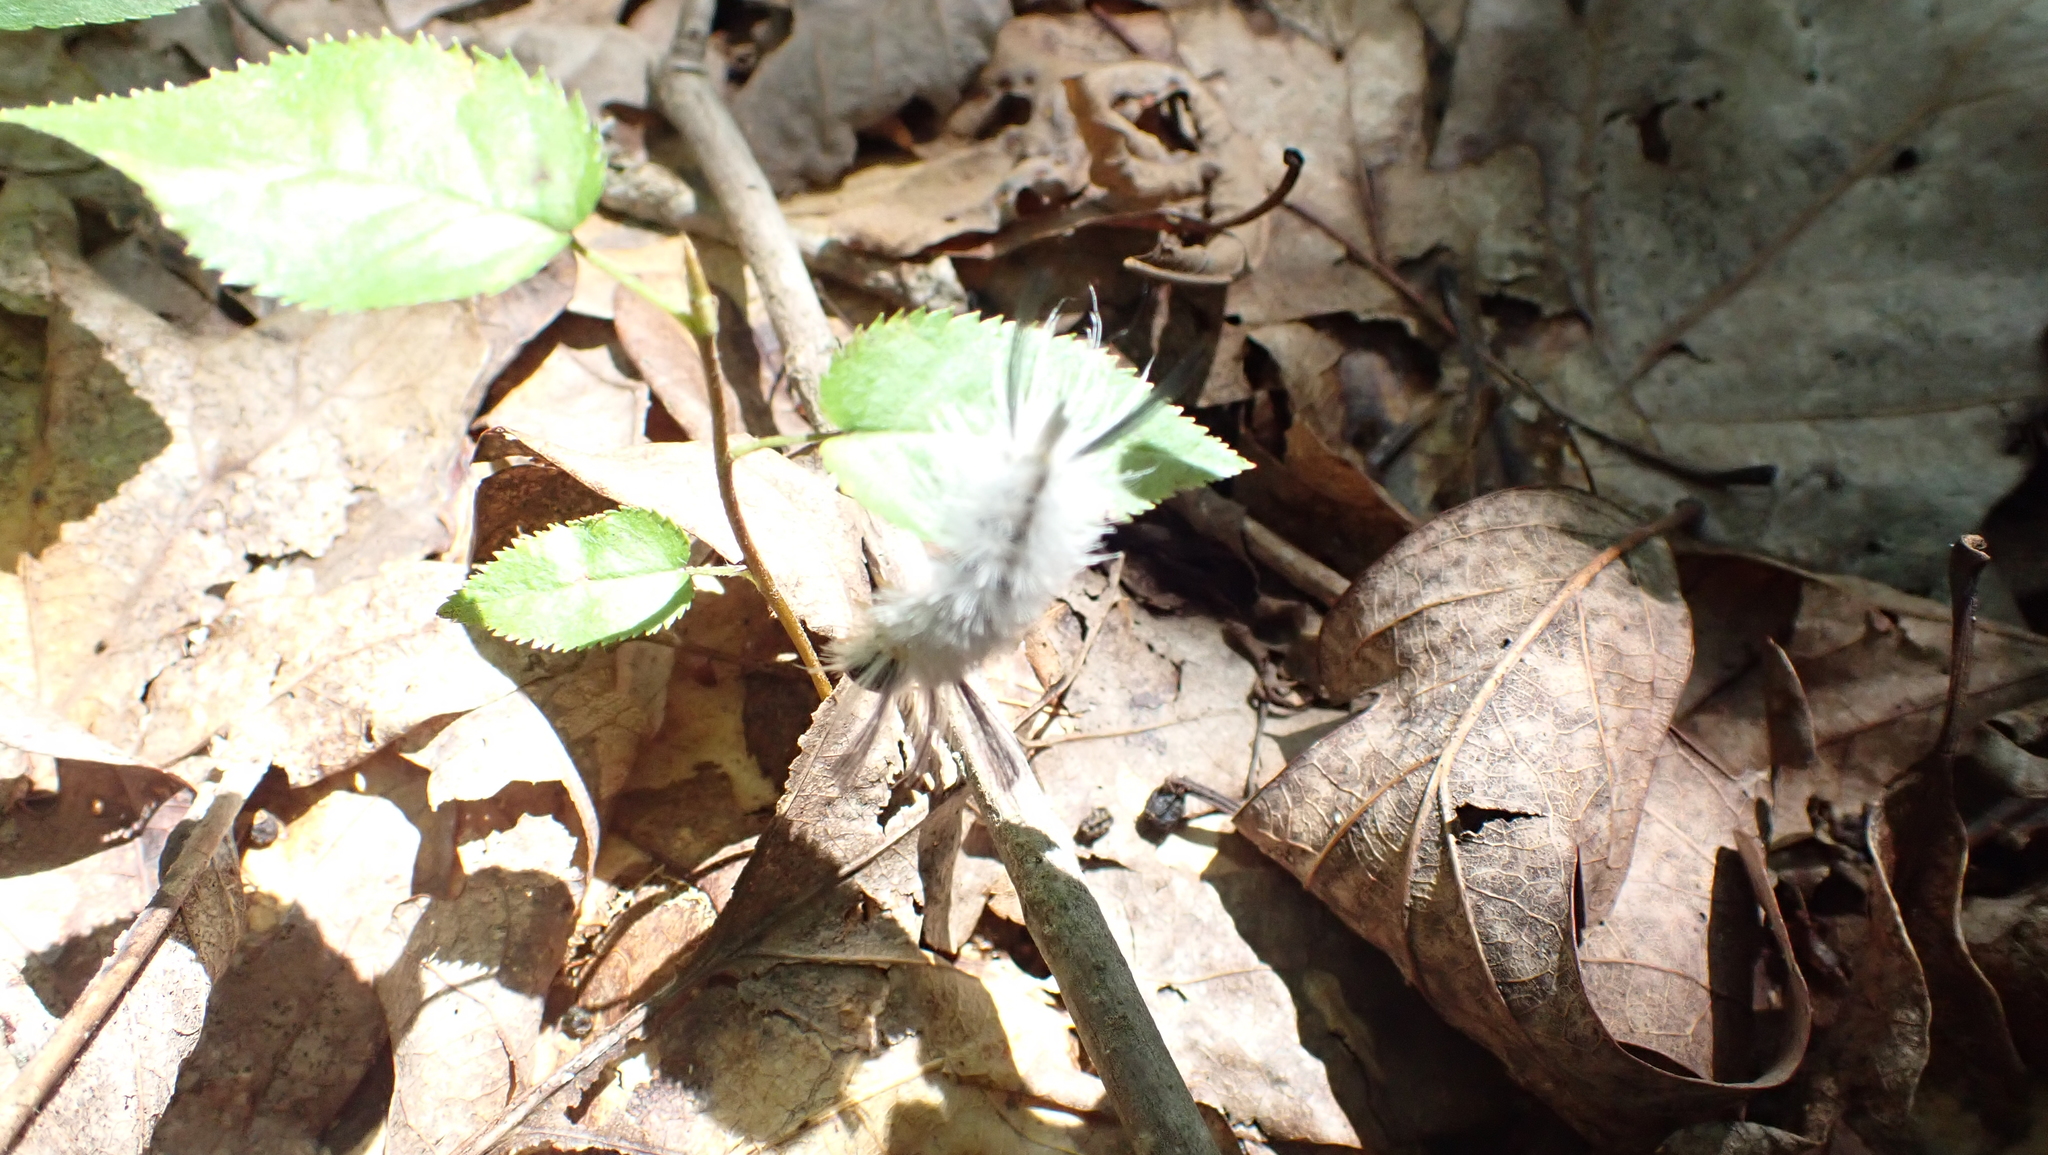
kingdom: Animalia
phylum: Arthropoda
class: Insecta
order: Lepidoptera
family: Erebidae
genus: Halysidota
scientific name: Halysidota tessellaris
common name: Banded tussock moth
